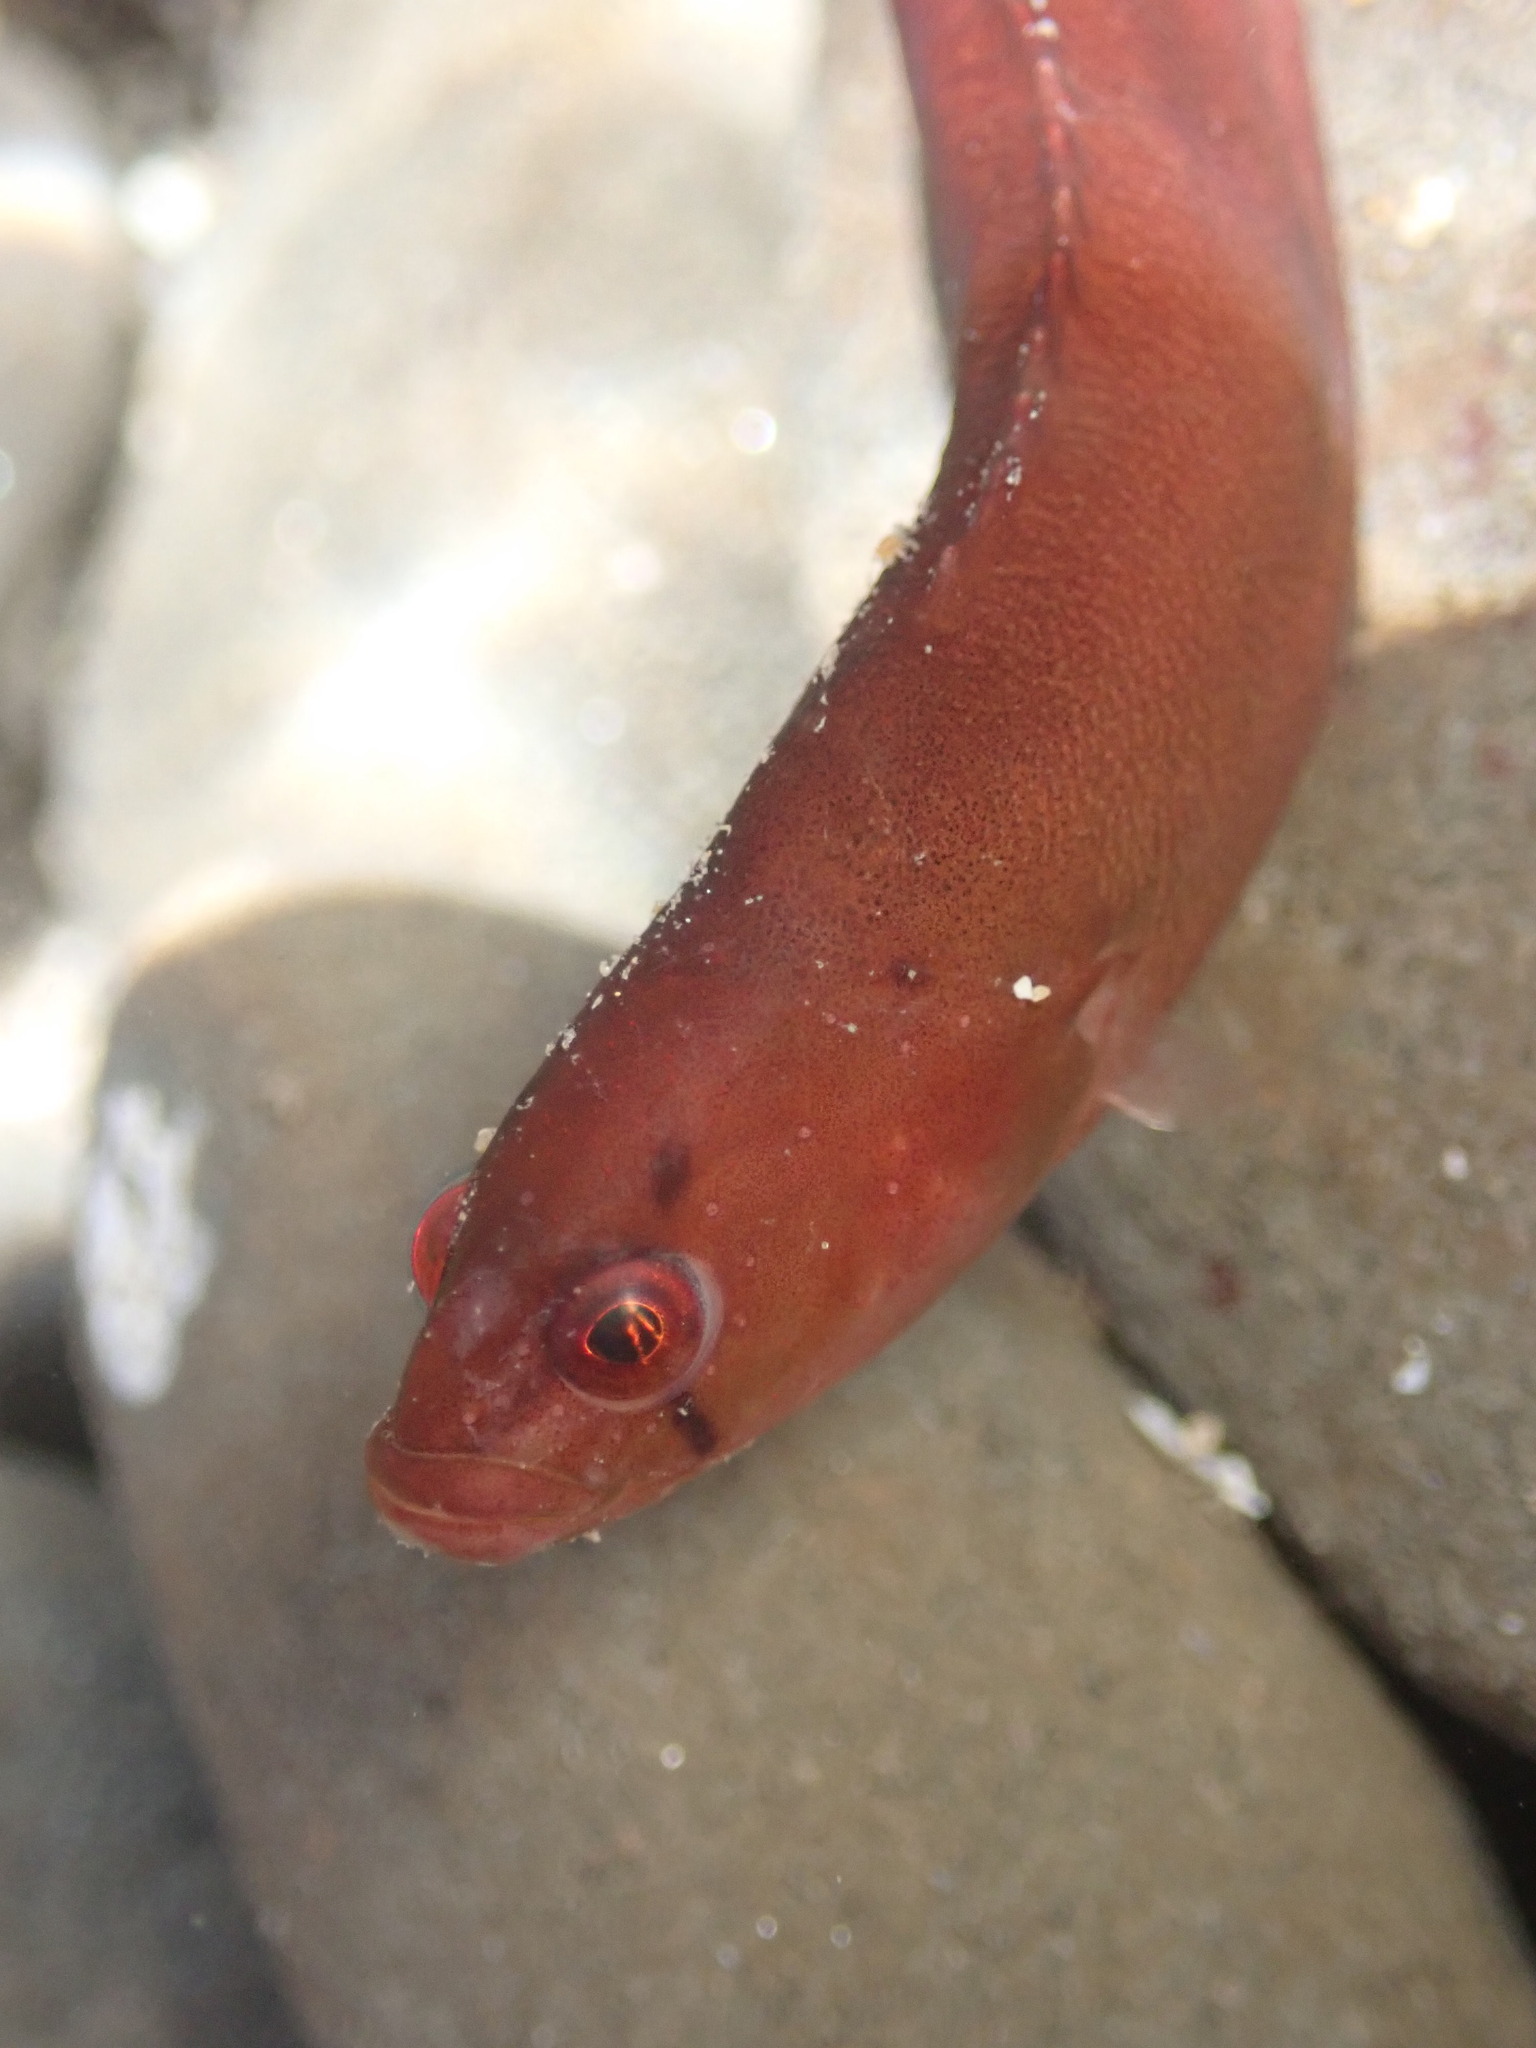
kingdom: Animalia
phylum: Chordata
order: Perciformes
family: Pholidae
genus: Apodichthys
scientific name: Apodichthys flavidus
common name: Penpoint gunnel
